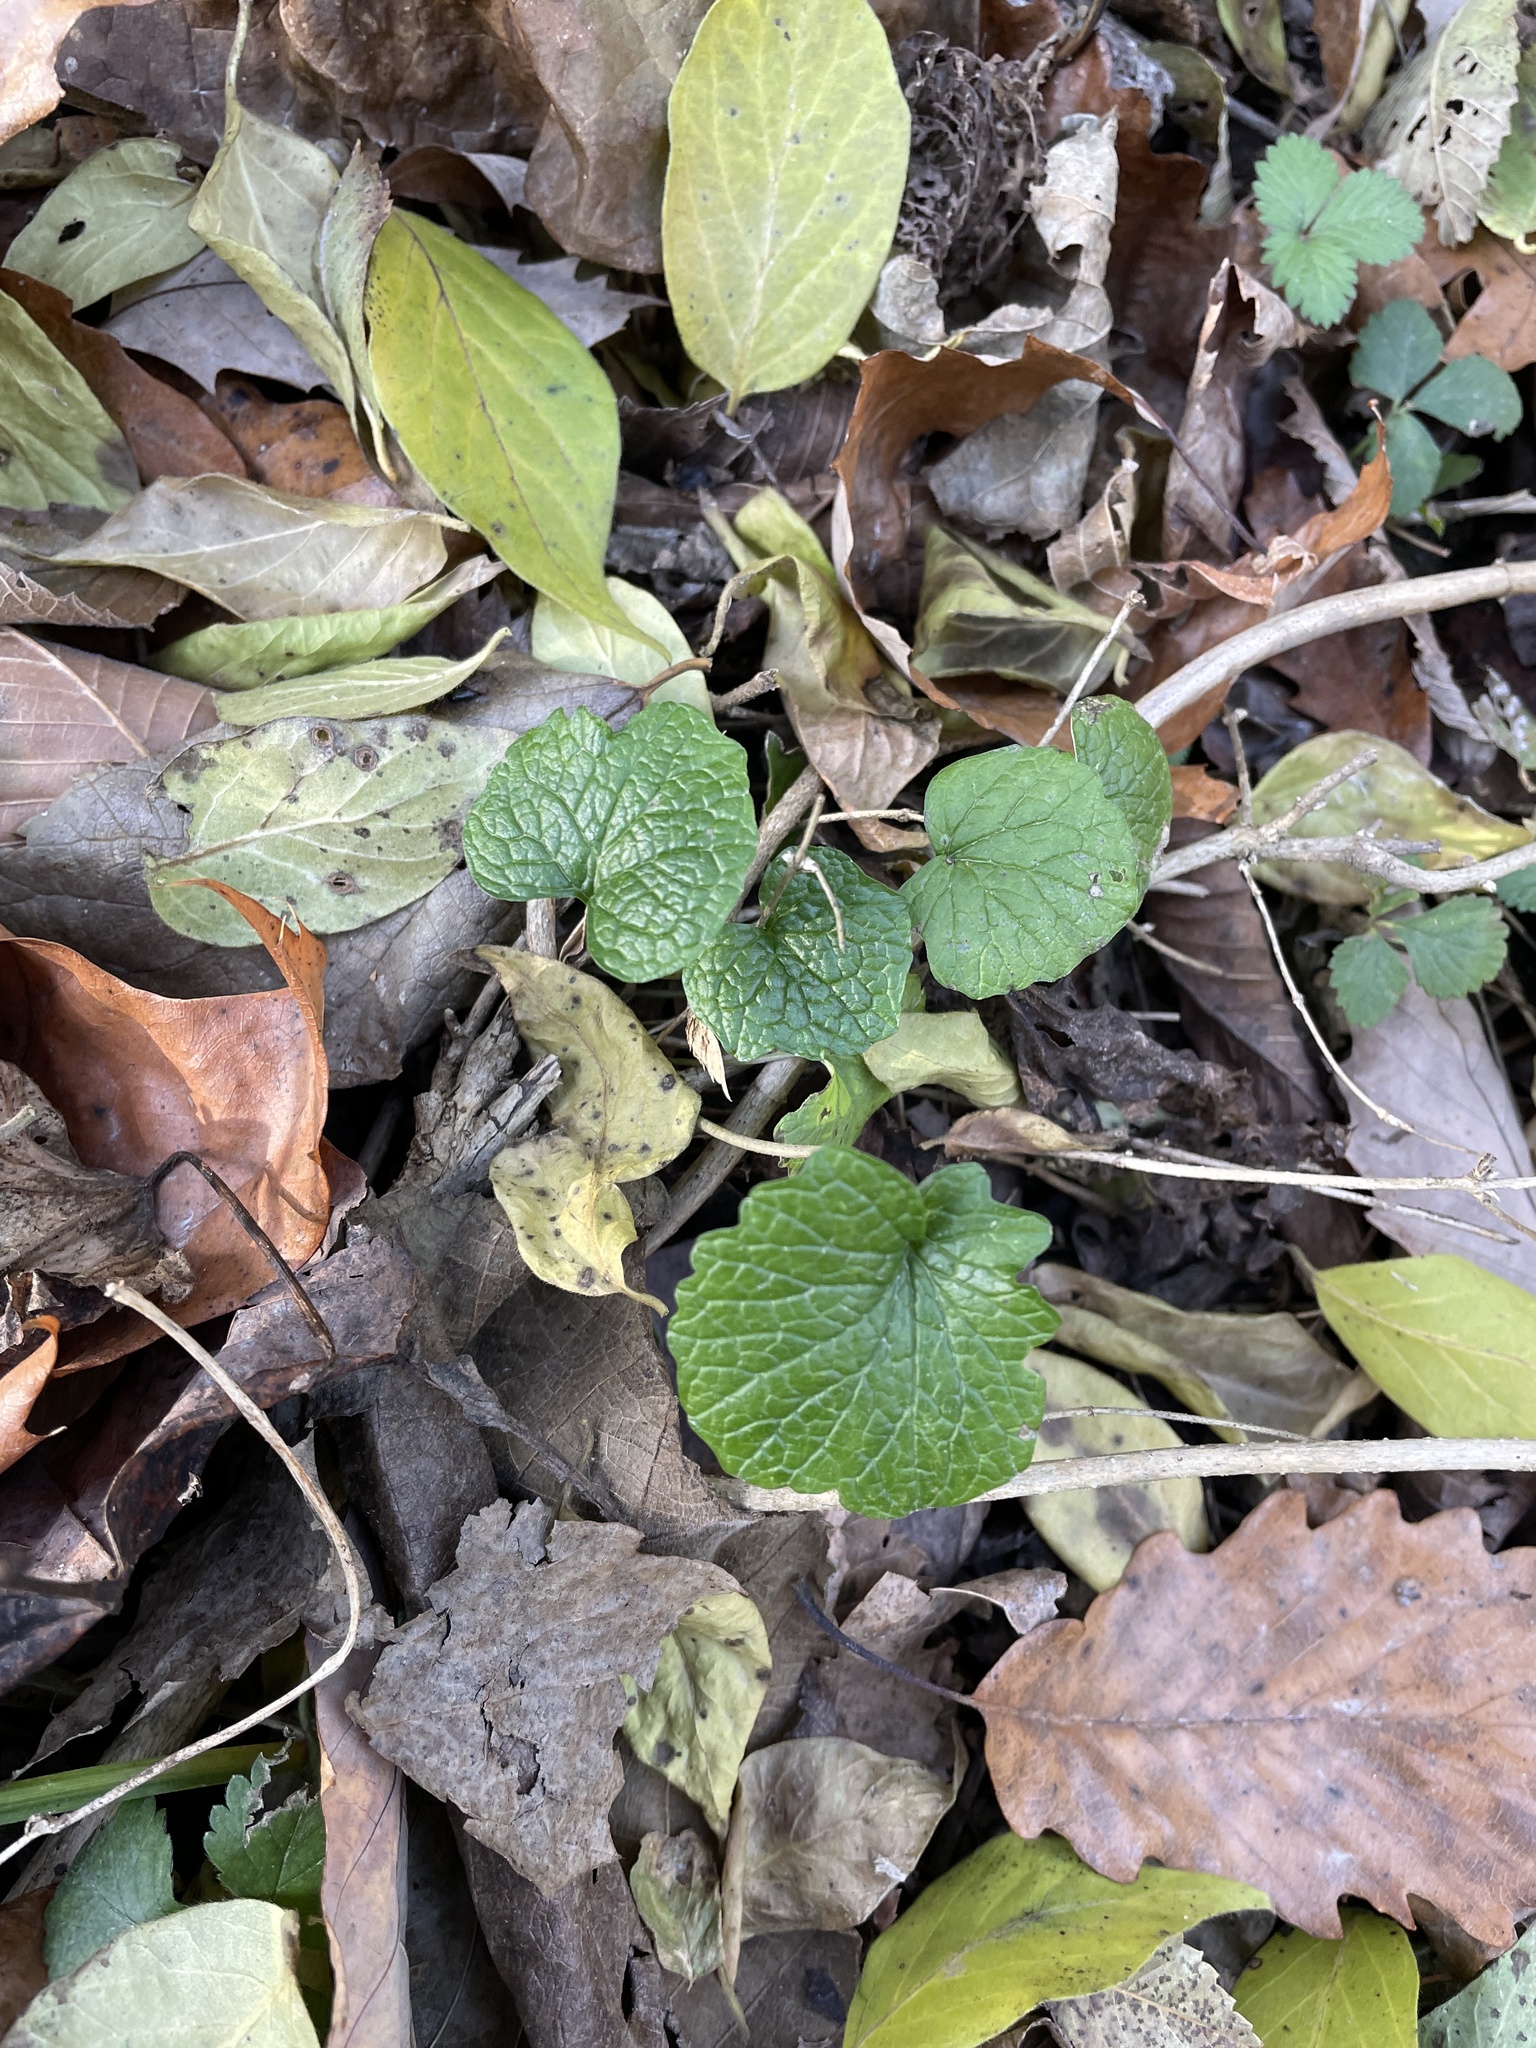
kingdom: Plantae
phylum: Tracheophyta
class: Magnoliopsida
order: Brassicales
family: Brassicaceae
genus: Alliaria
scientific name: Alliaria petiolata
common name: Garlic mustard
